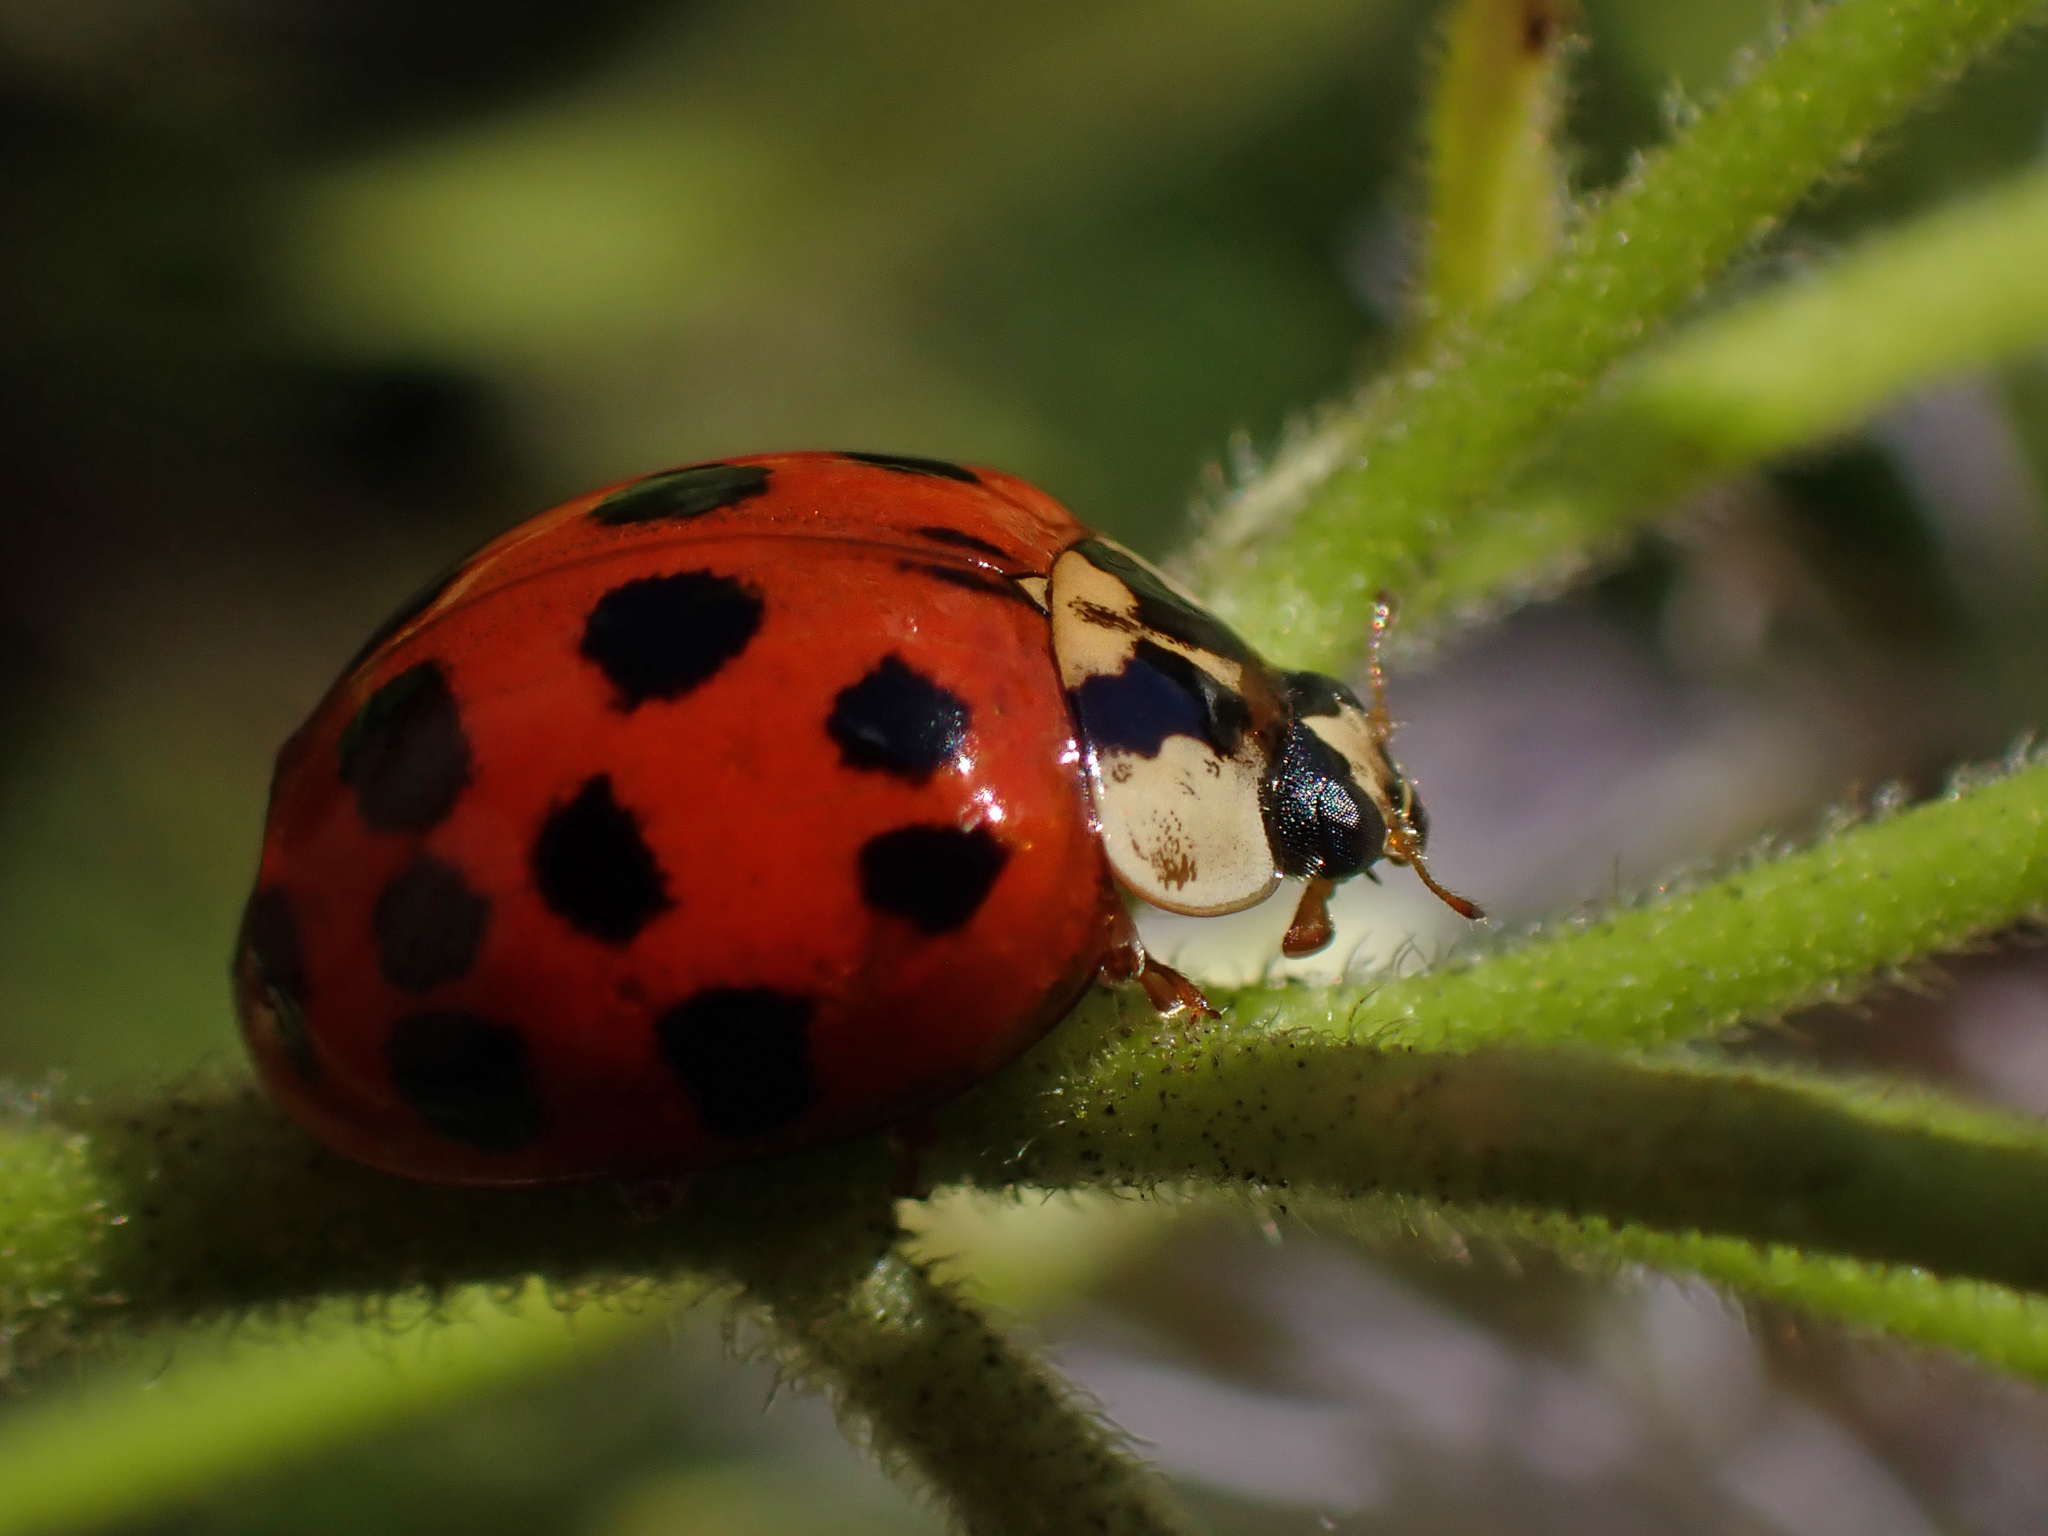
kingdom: Animalia
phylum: Arthropoda
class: Insecta
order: Coleoptera
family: Coccinellidae
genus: Harmonia
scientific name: Harmonia axyridis
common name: Harlequin ladybird
